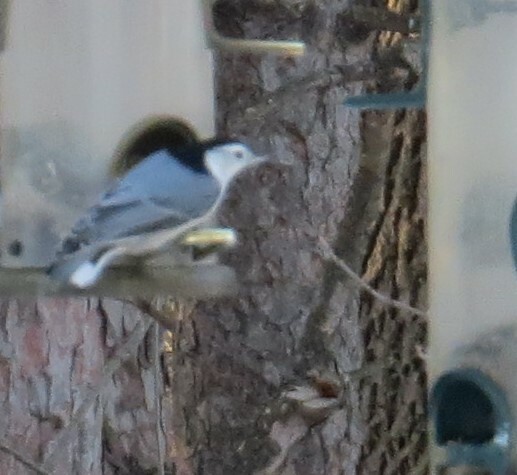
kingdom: Animalia
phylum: Chordata
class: Aves
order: Passeriformes
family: Sittidae
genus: Sitta
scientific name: Sitta carolinensis
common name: White-breasted nuthatch
